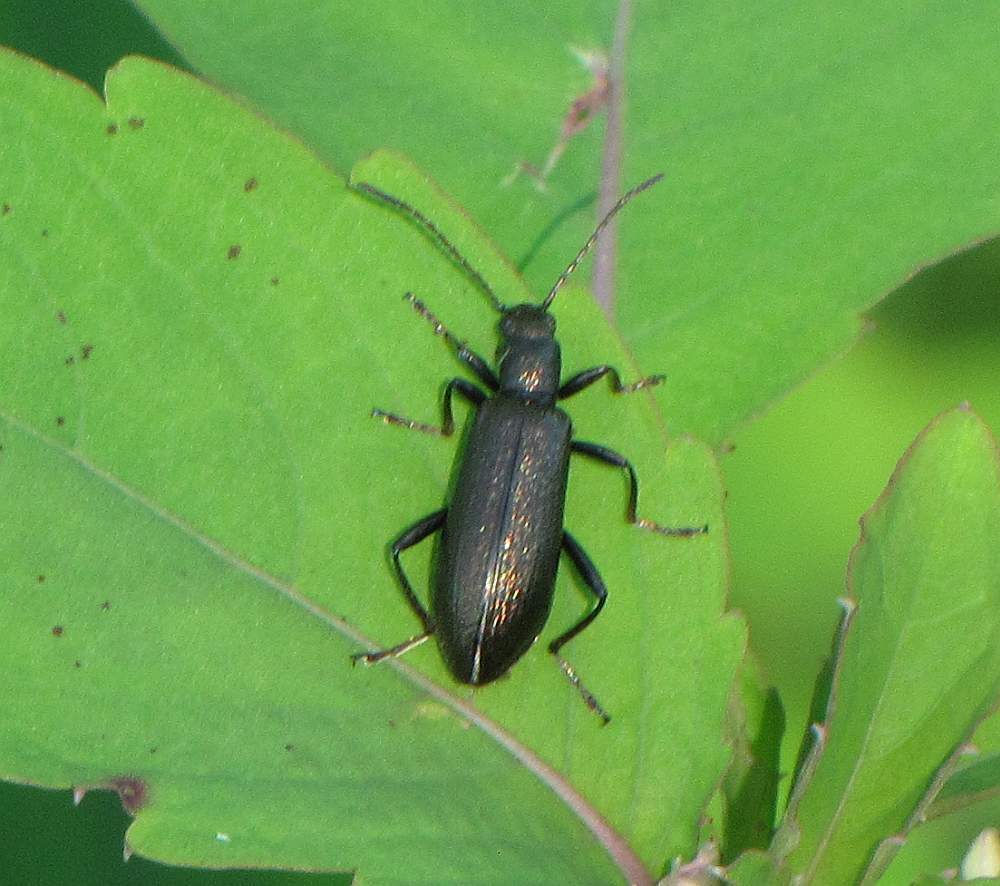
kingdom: Animalia
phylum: Arthropoda
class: Insecta
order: Coleoptera
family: Tenebrionidae
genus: Arthromacra
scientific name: Arthromacra aenea
